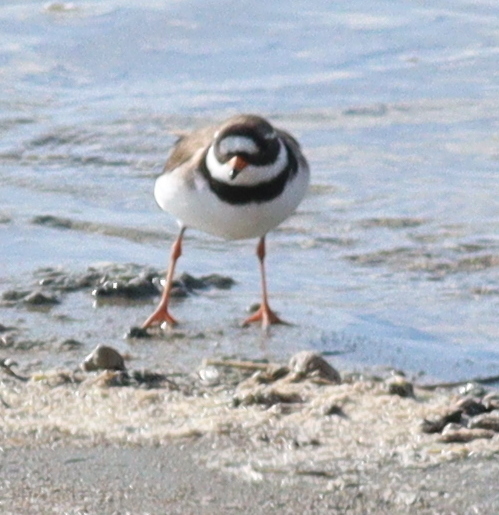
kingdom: Animalia
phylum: Chordata
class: Aves
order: Charadriiformes
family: Charadriidae
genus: Charadrius
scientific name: Charadrius hiaticula
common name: Common ringed plover
